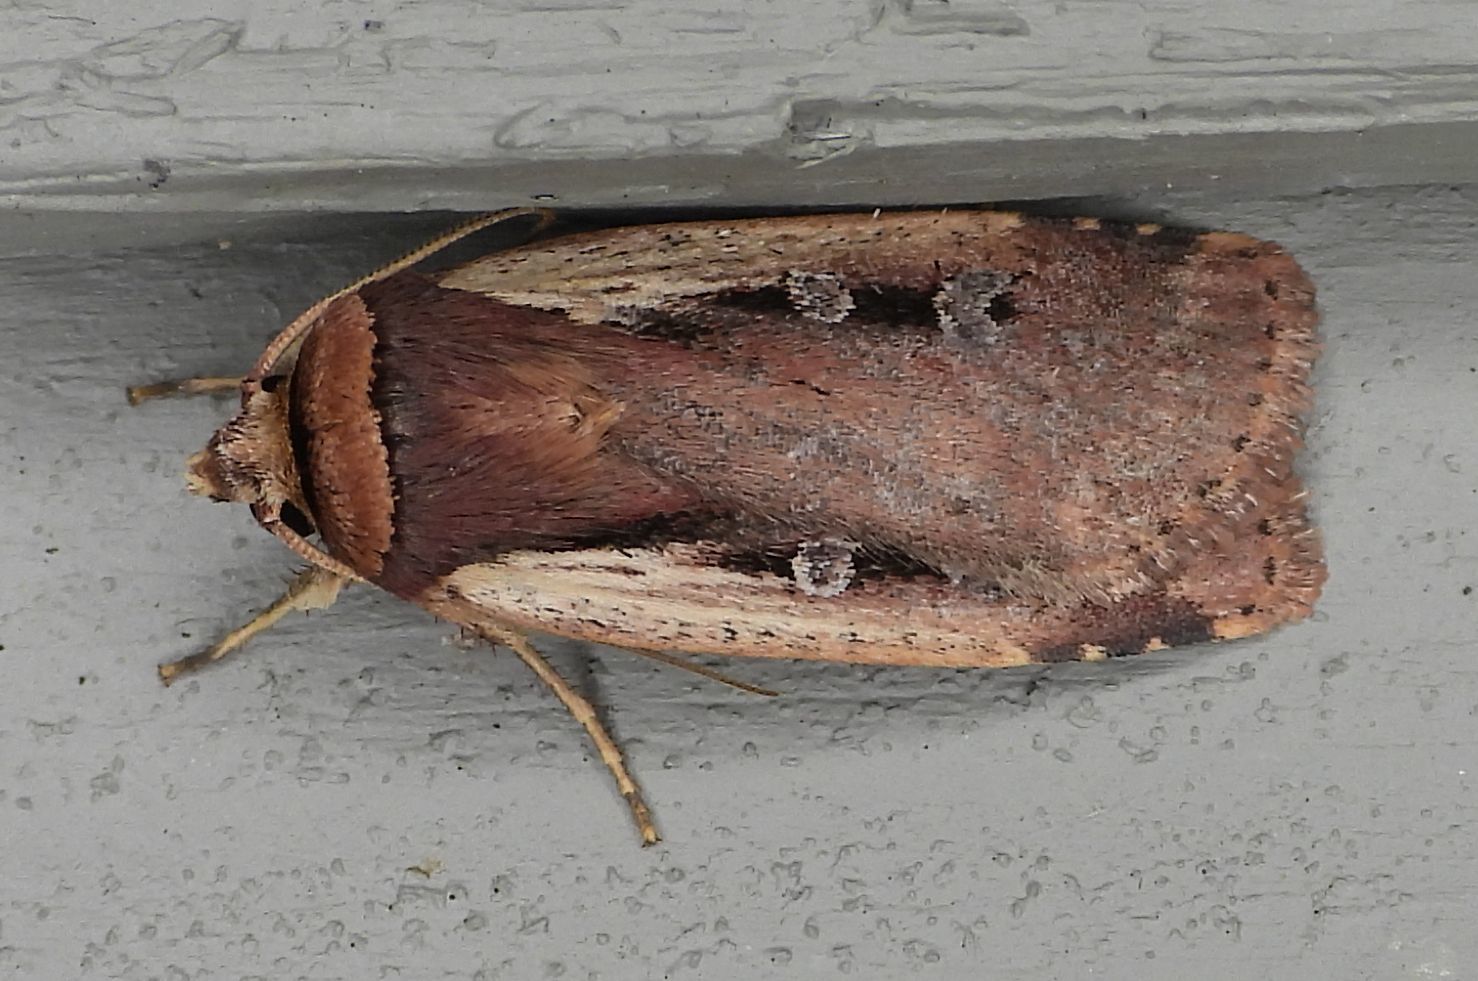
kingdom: Animalia
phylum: Arthropoda
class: Insecta
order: Lepidoptera
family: Noctuidae
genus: Ochropleura
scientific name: Ochropleura implecta
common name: Flame-shouldered dart
